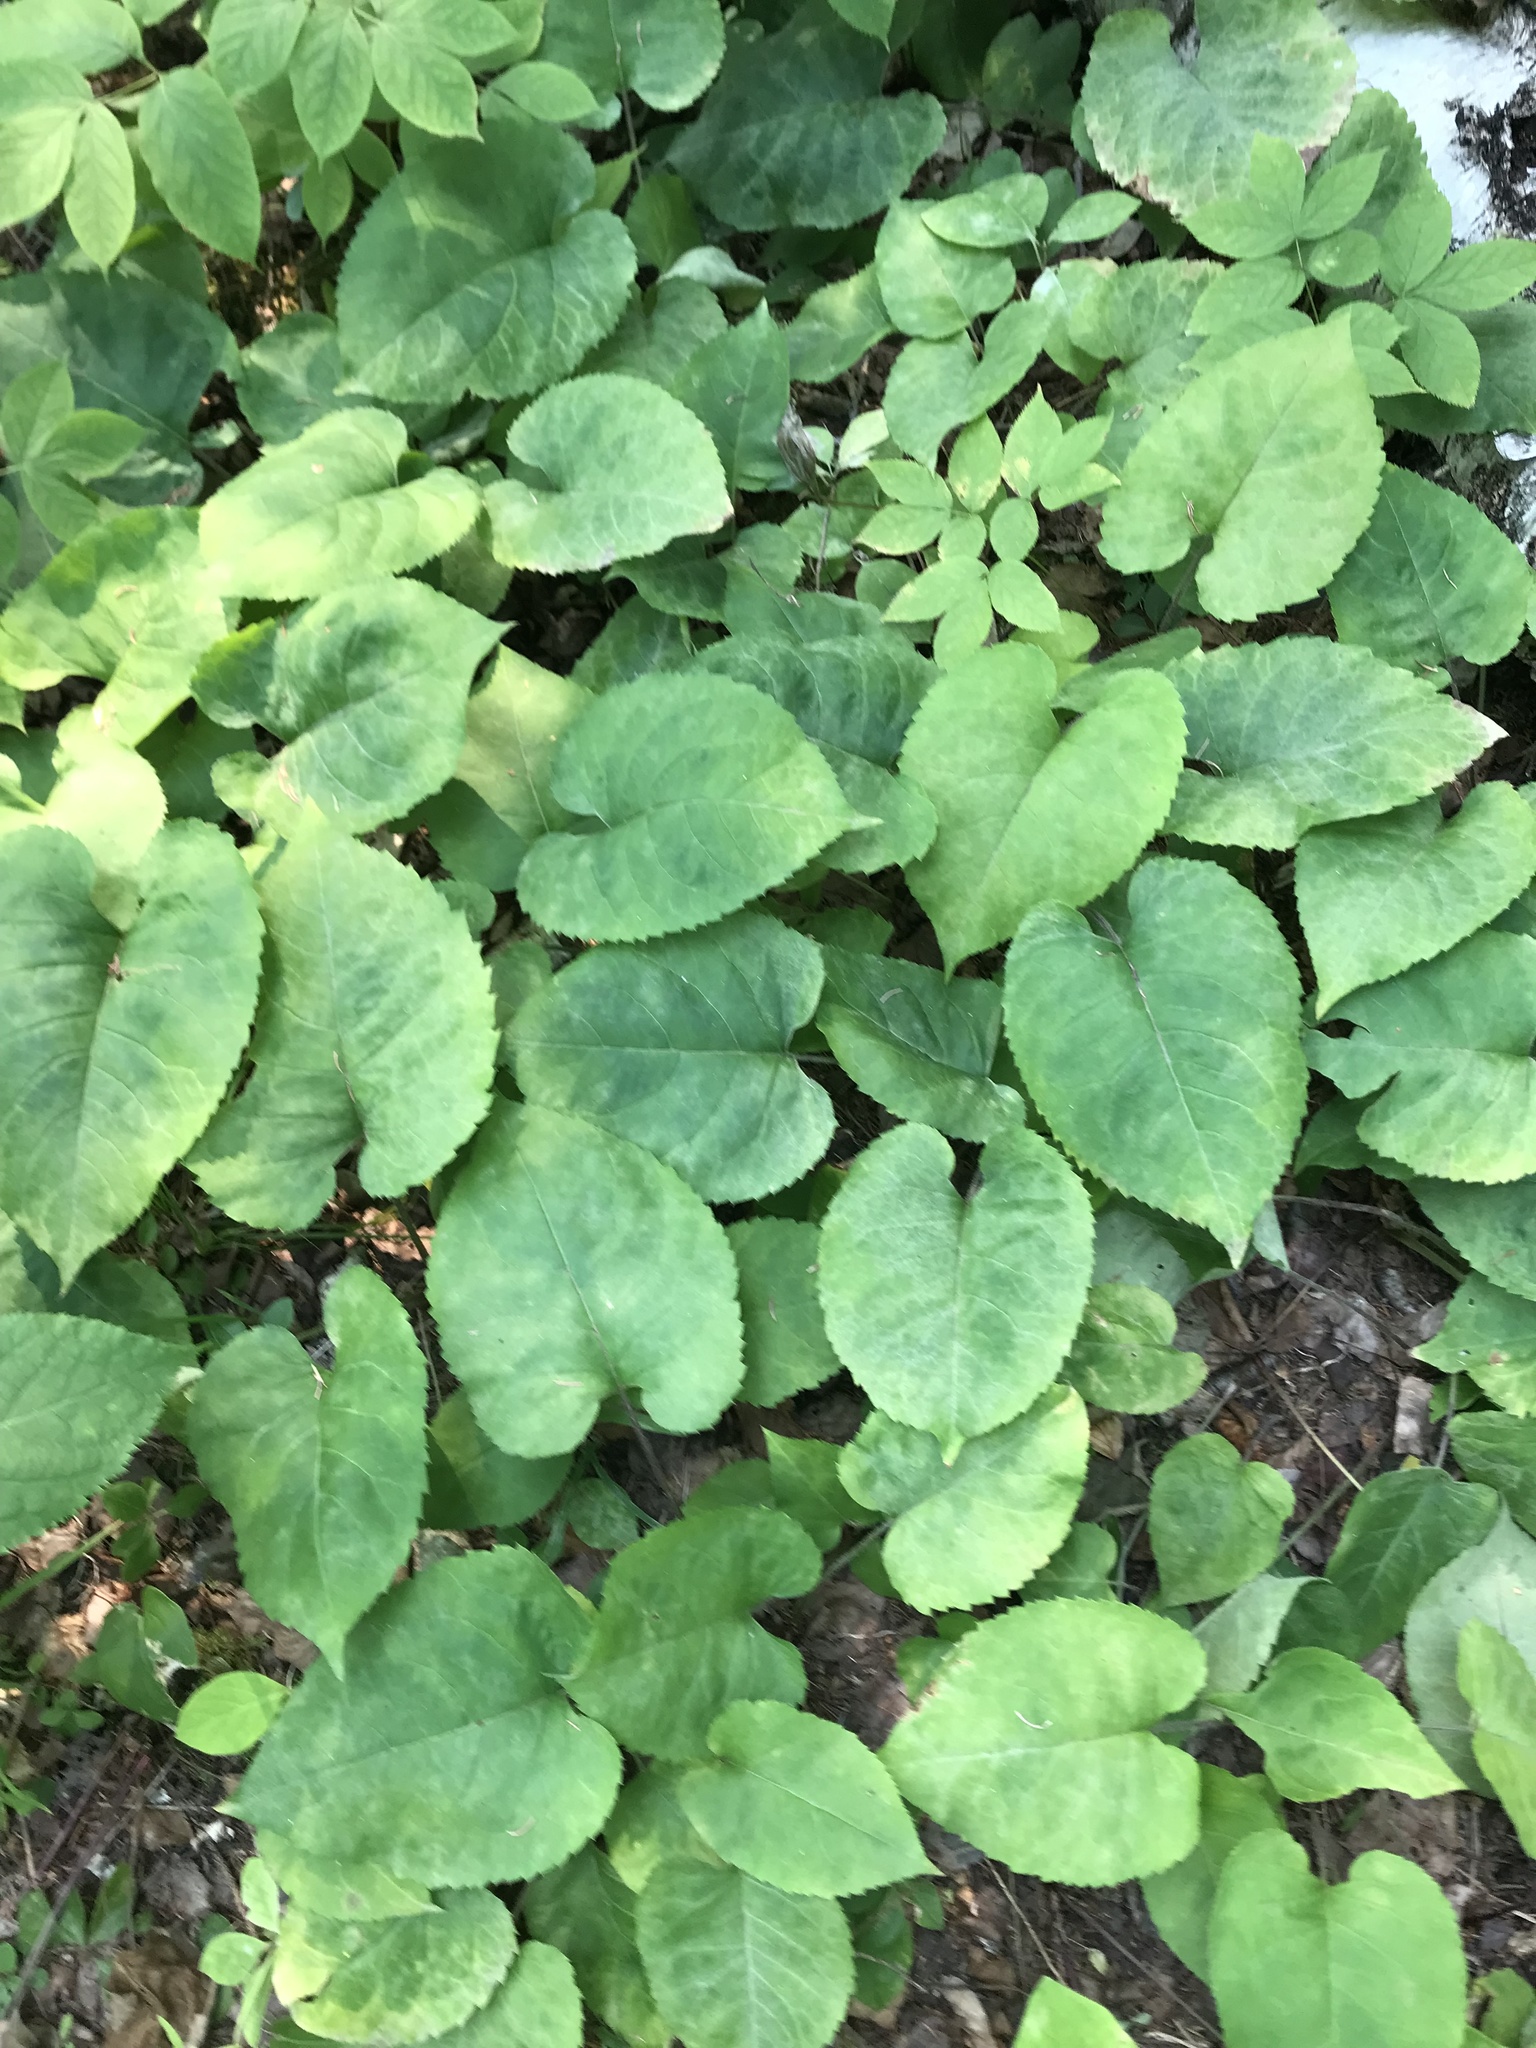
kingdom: Plantae
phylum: Tracheophyta
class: Magnoliopsida
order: Asterales
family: Asteraceae
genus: Eurybia
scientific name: Eurybia macrophylla
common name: Big-leaved aster
